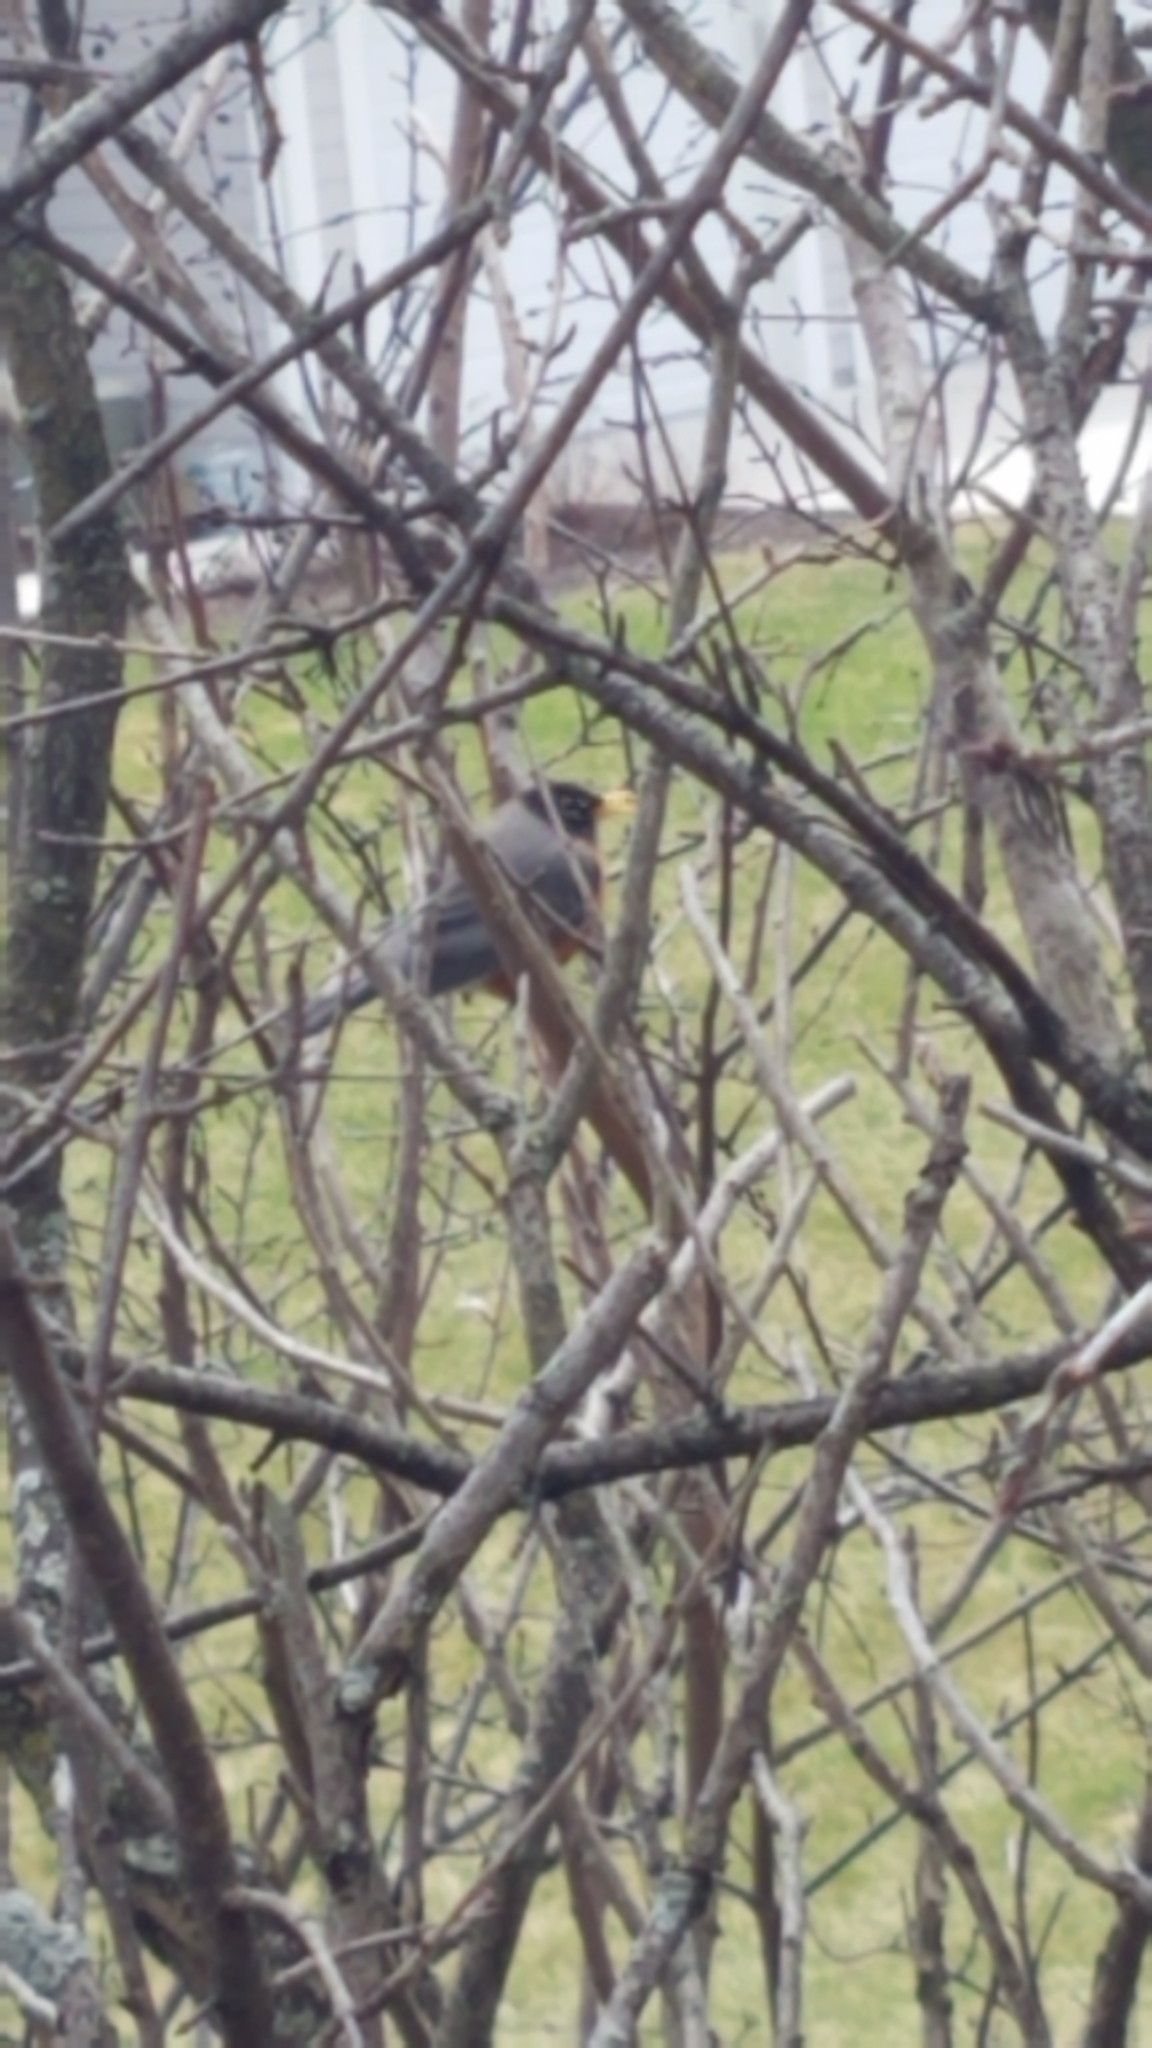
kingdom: Animalia
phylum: Chordata
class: Aves
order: Passeriformes
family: Turdidae
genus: Turdus
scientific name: Turdus migratorius
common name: American robin
